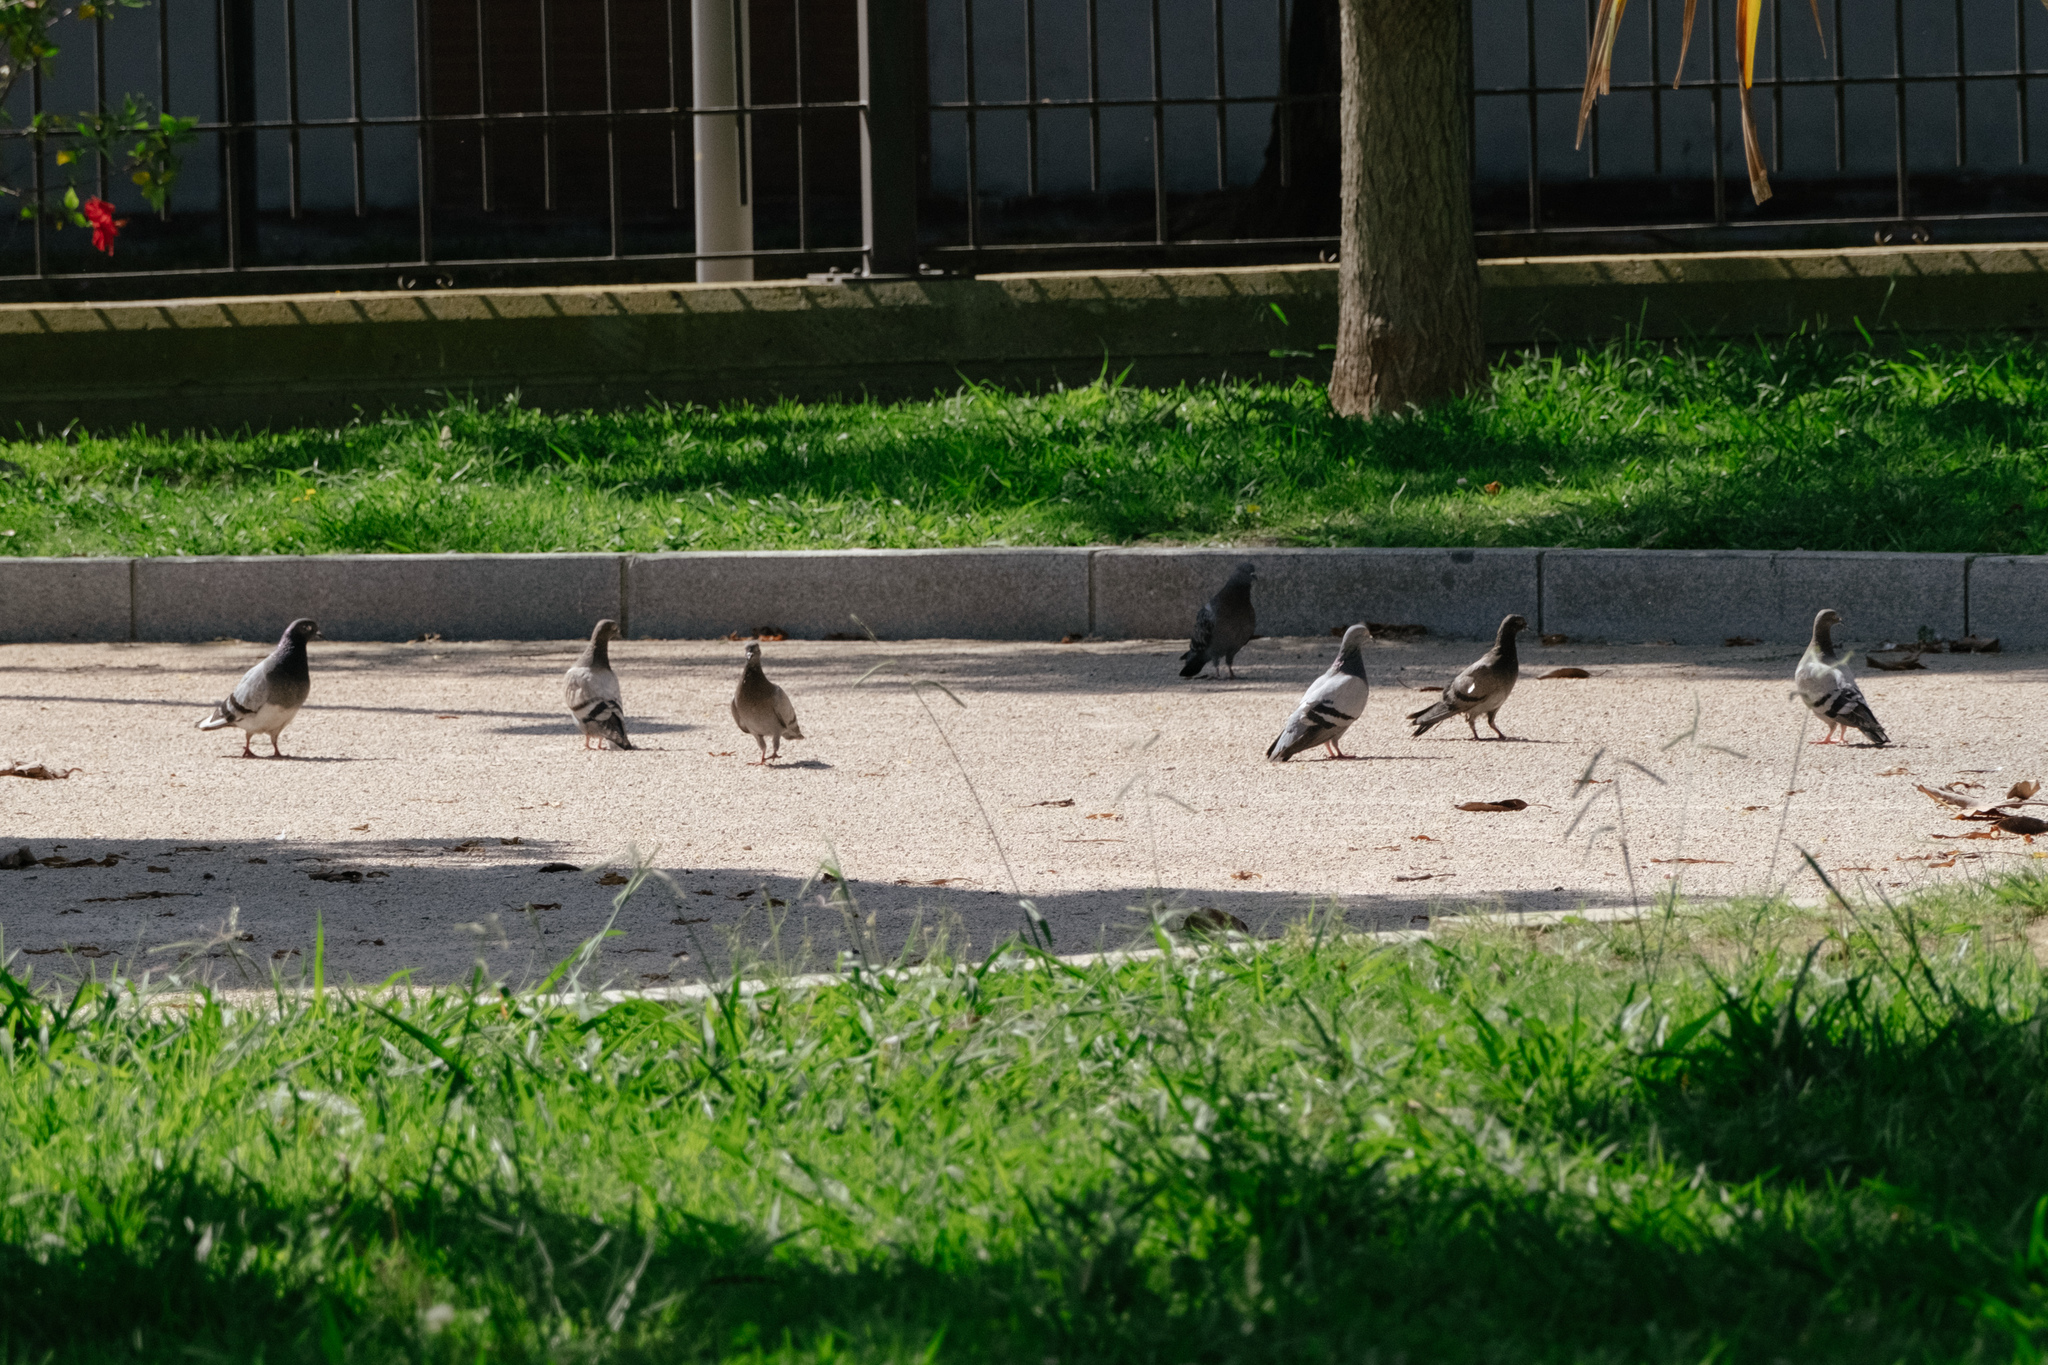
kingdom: Animalia
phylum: Chordata
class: Aves
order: Columbiformes
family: Columbidae
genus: Columba
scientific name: Columba livia
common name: Rock pigeon
